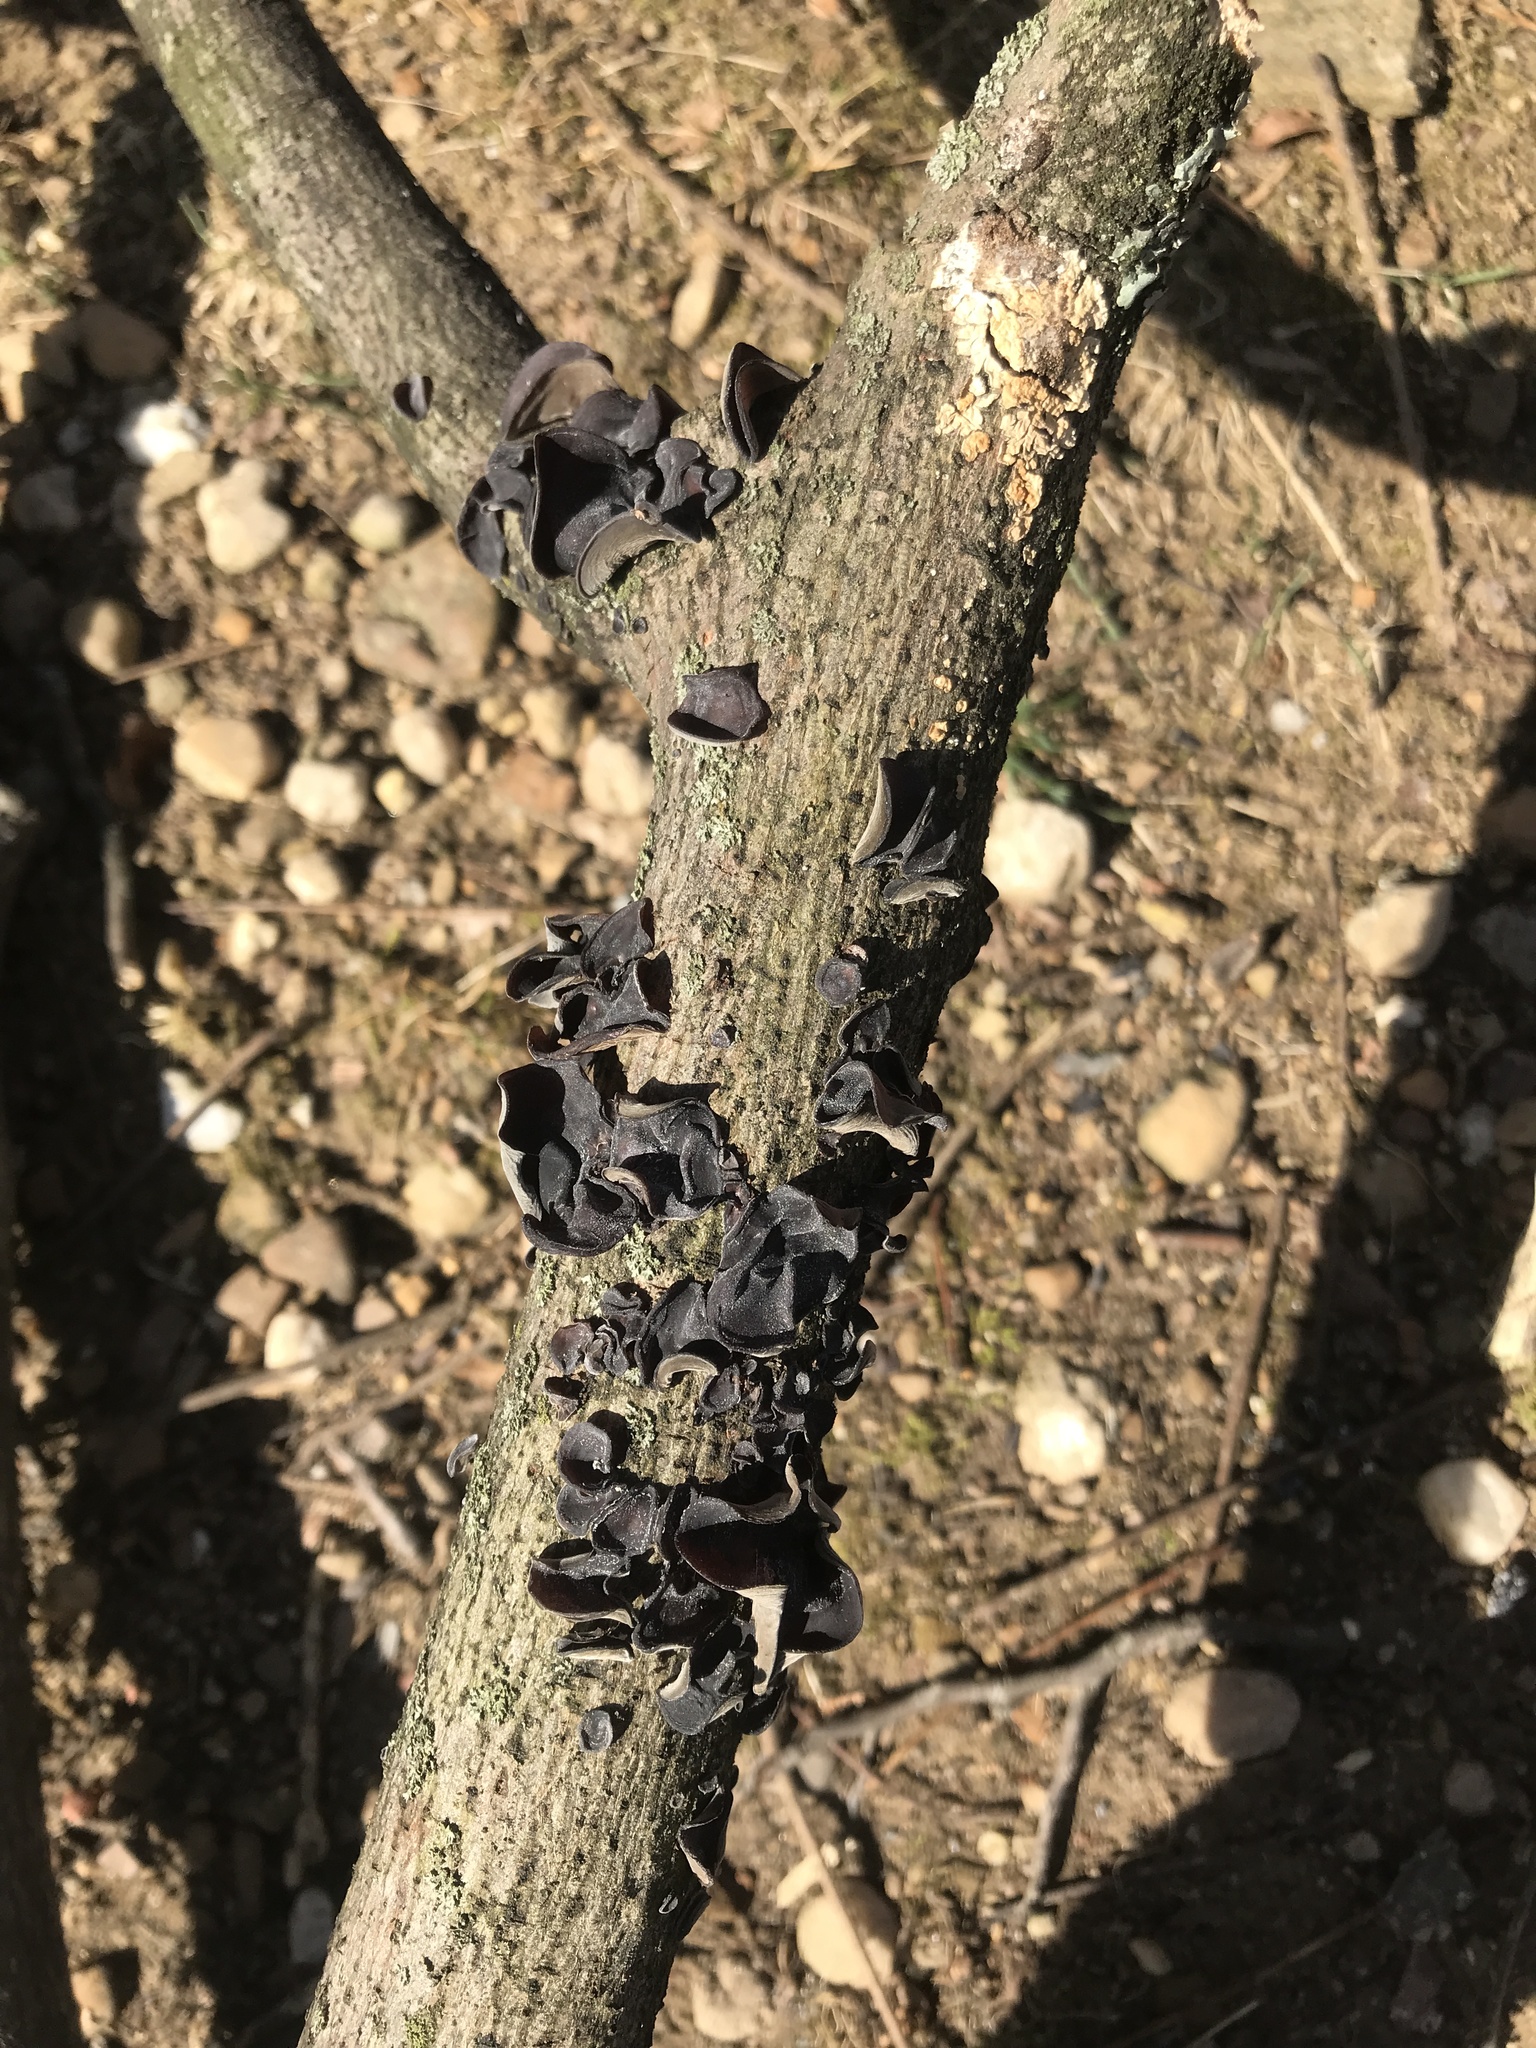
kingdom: Fungi
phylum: Basidiomycota
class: Agaricomycetes
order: Auriculariales
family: Auriculariaceae
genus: Auricularia
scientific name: Auricularia angiospermarum
